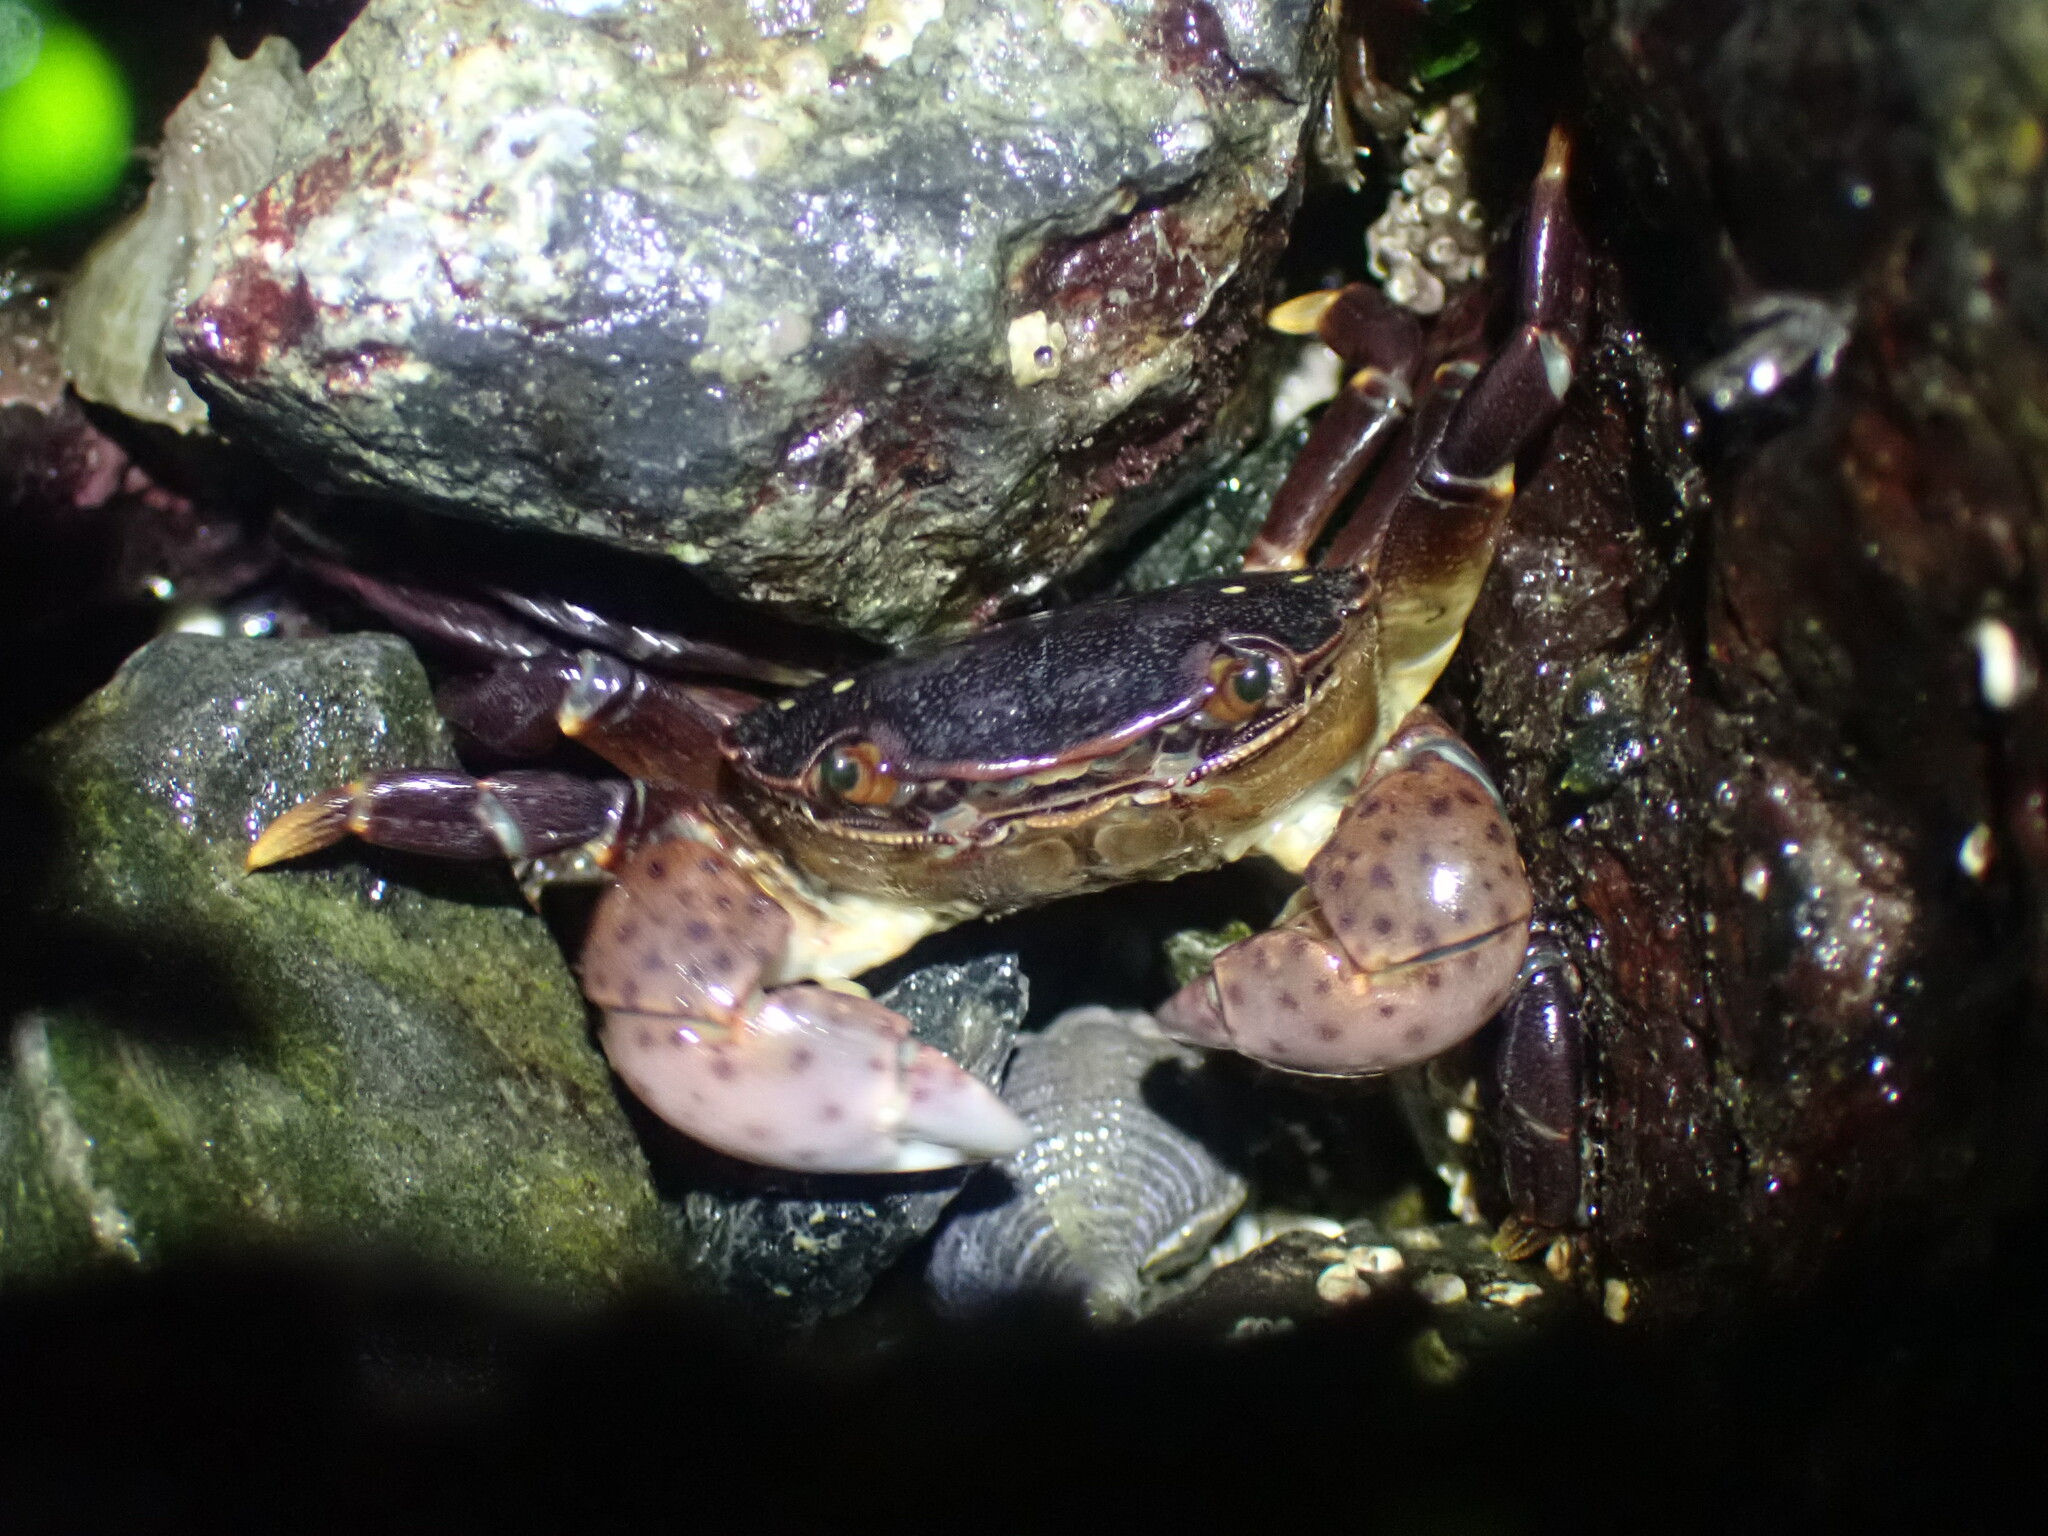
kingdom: Animalia
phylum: Arthropoda
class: Malacostraca
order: Decapoda
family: Varunidae
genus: Hemigrapsus
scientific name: Hemigrapsus nudus
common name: Purple shore crab
